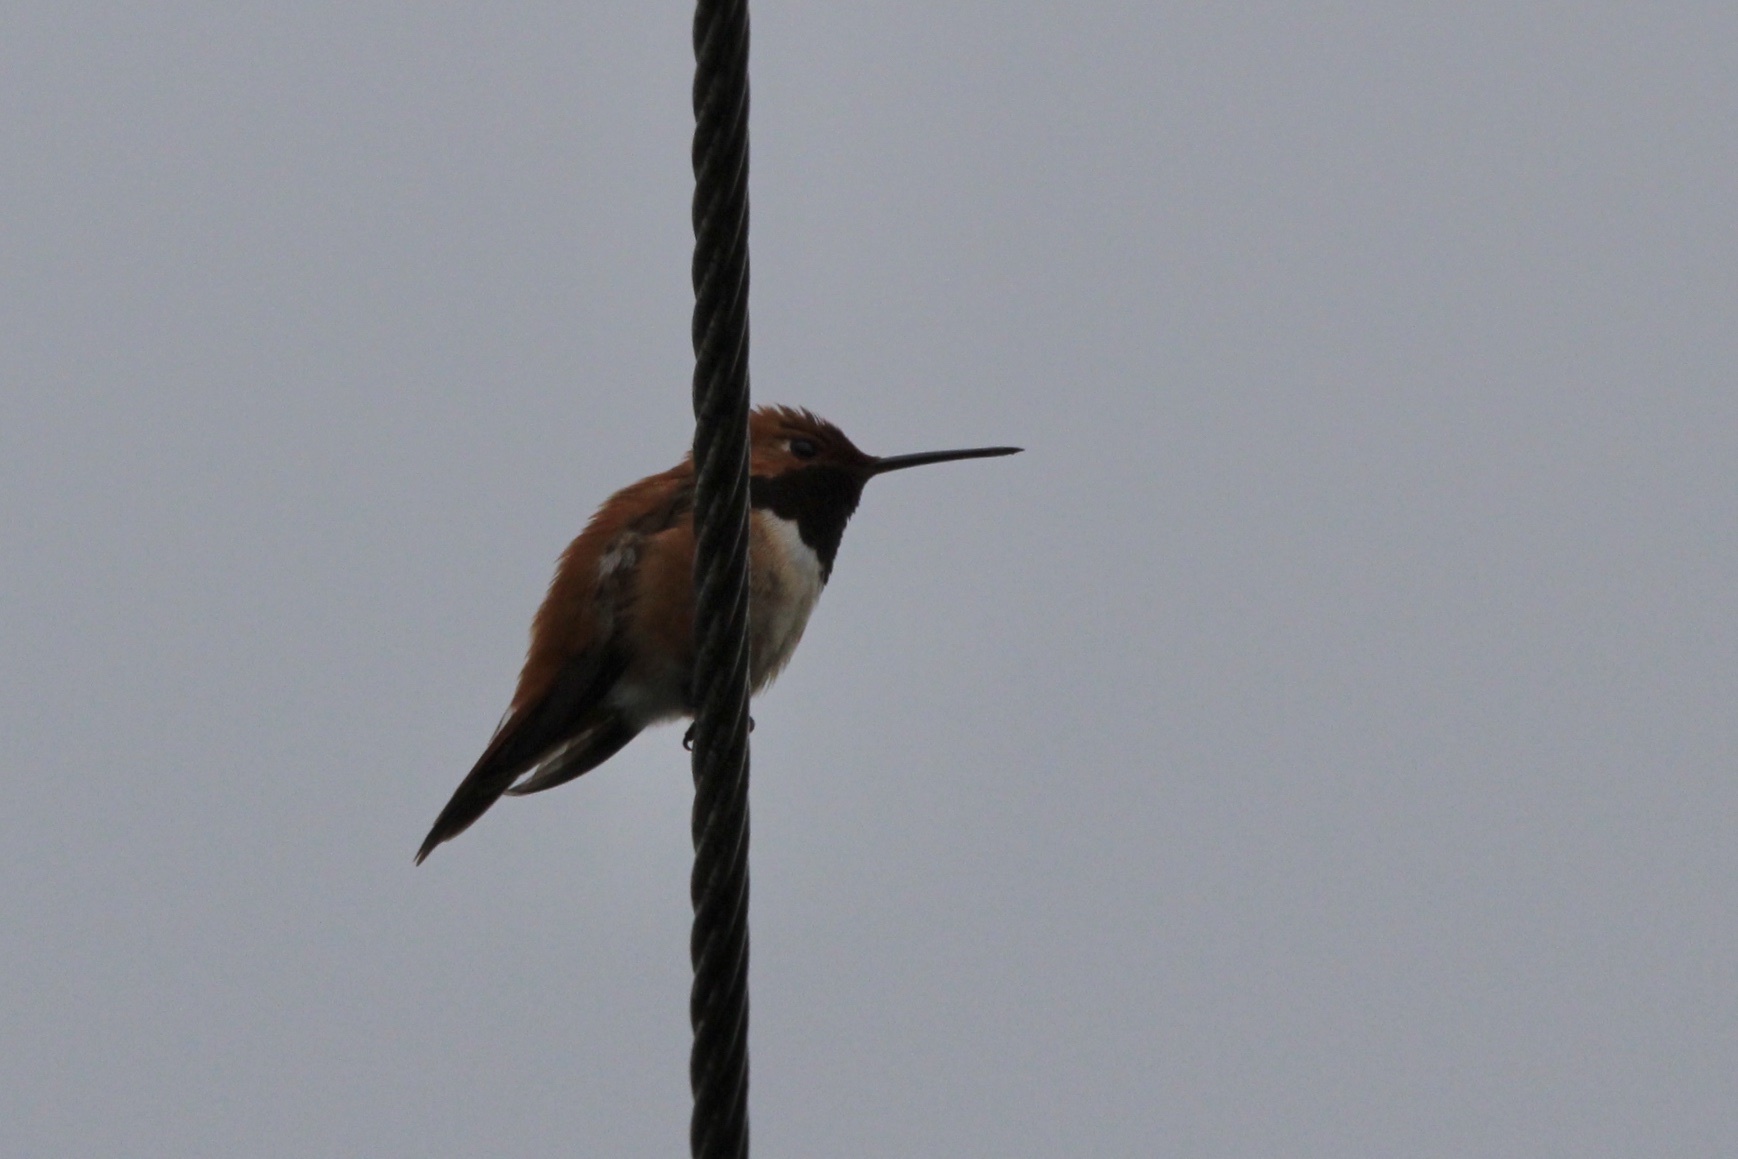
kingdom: Animalia
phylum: Chordata
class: Aves
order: Apodiformes
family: Trochilidae
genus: Selasphorus
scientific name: Selasphorus rufus
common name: Rufous hummingbird
